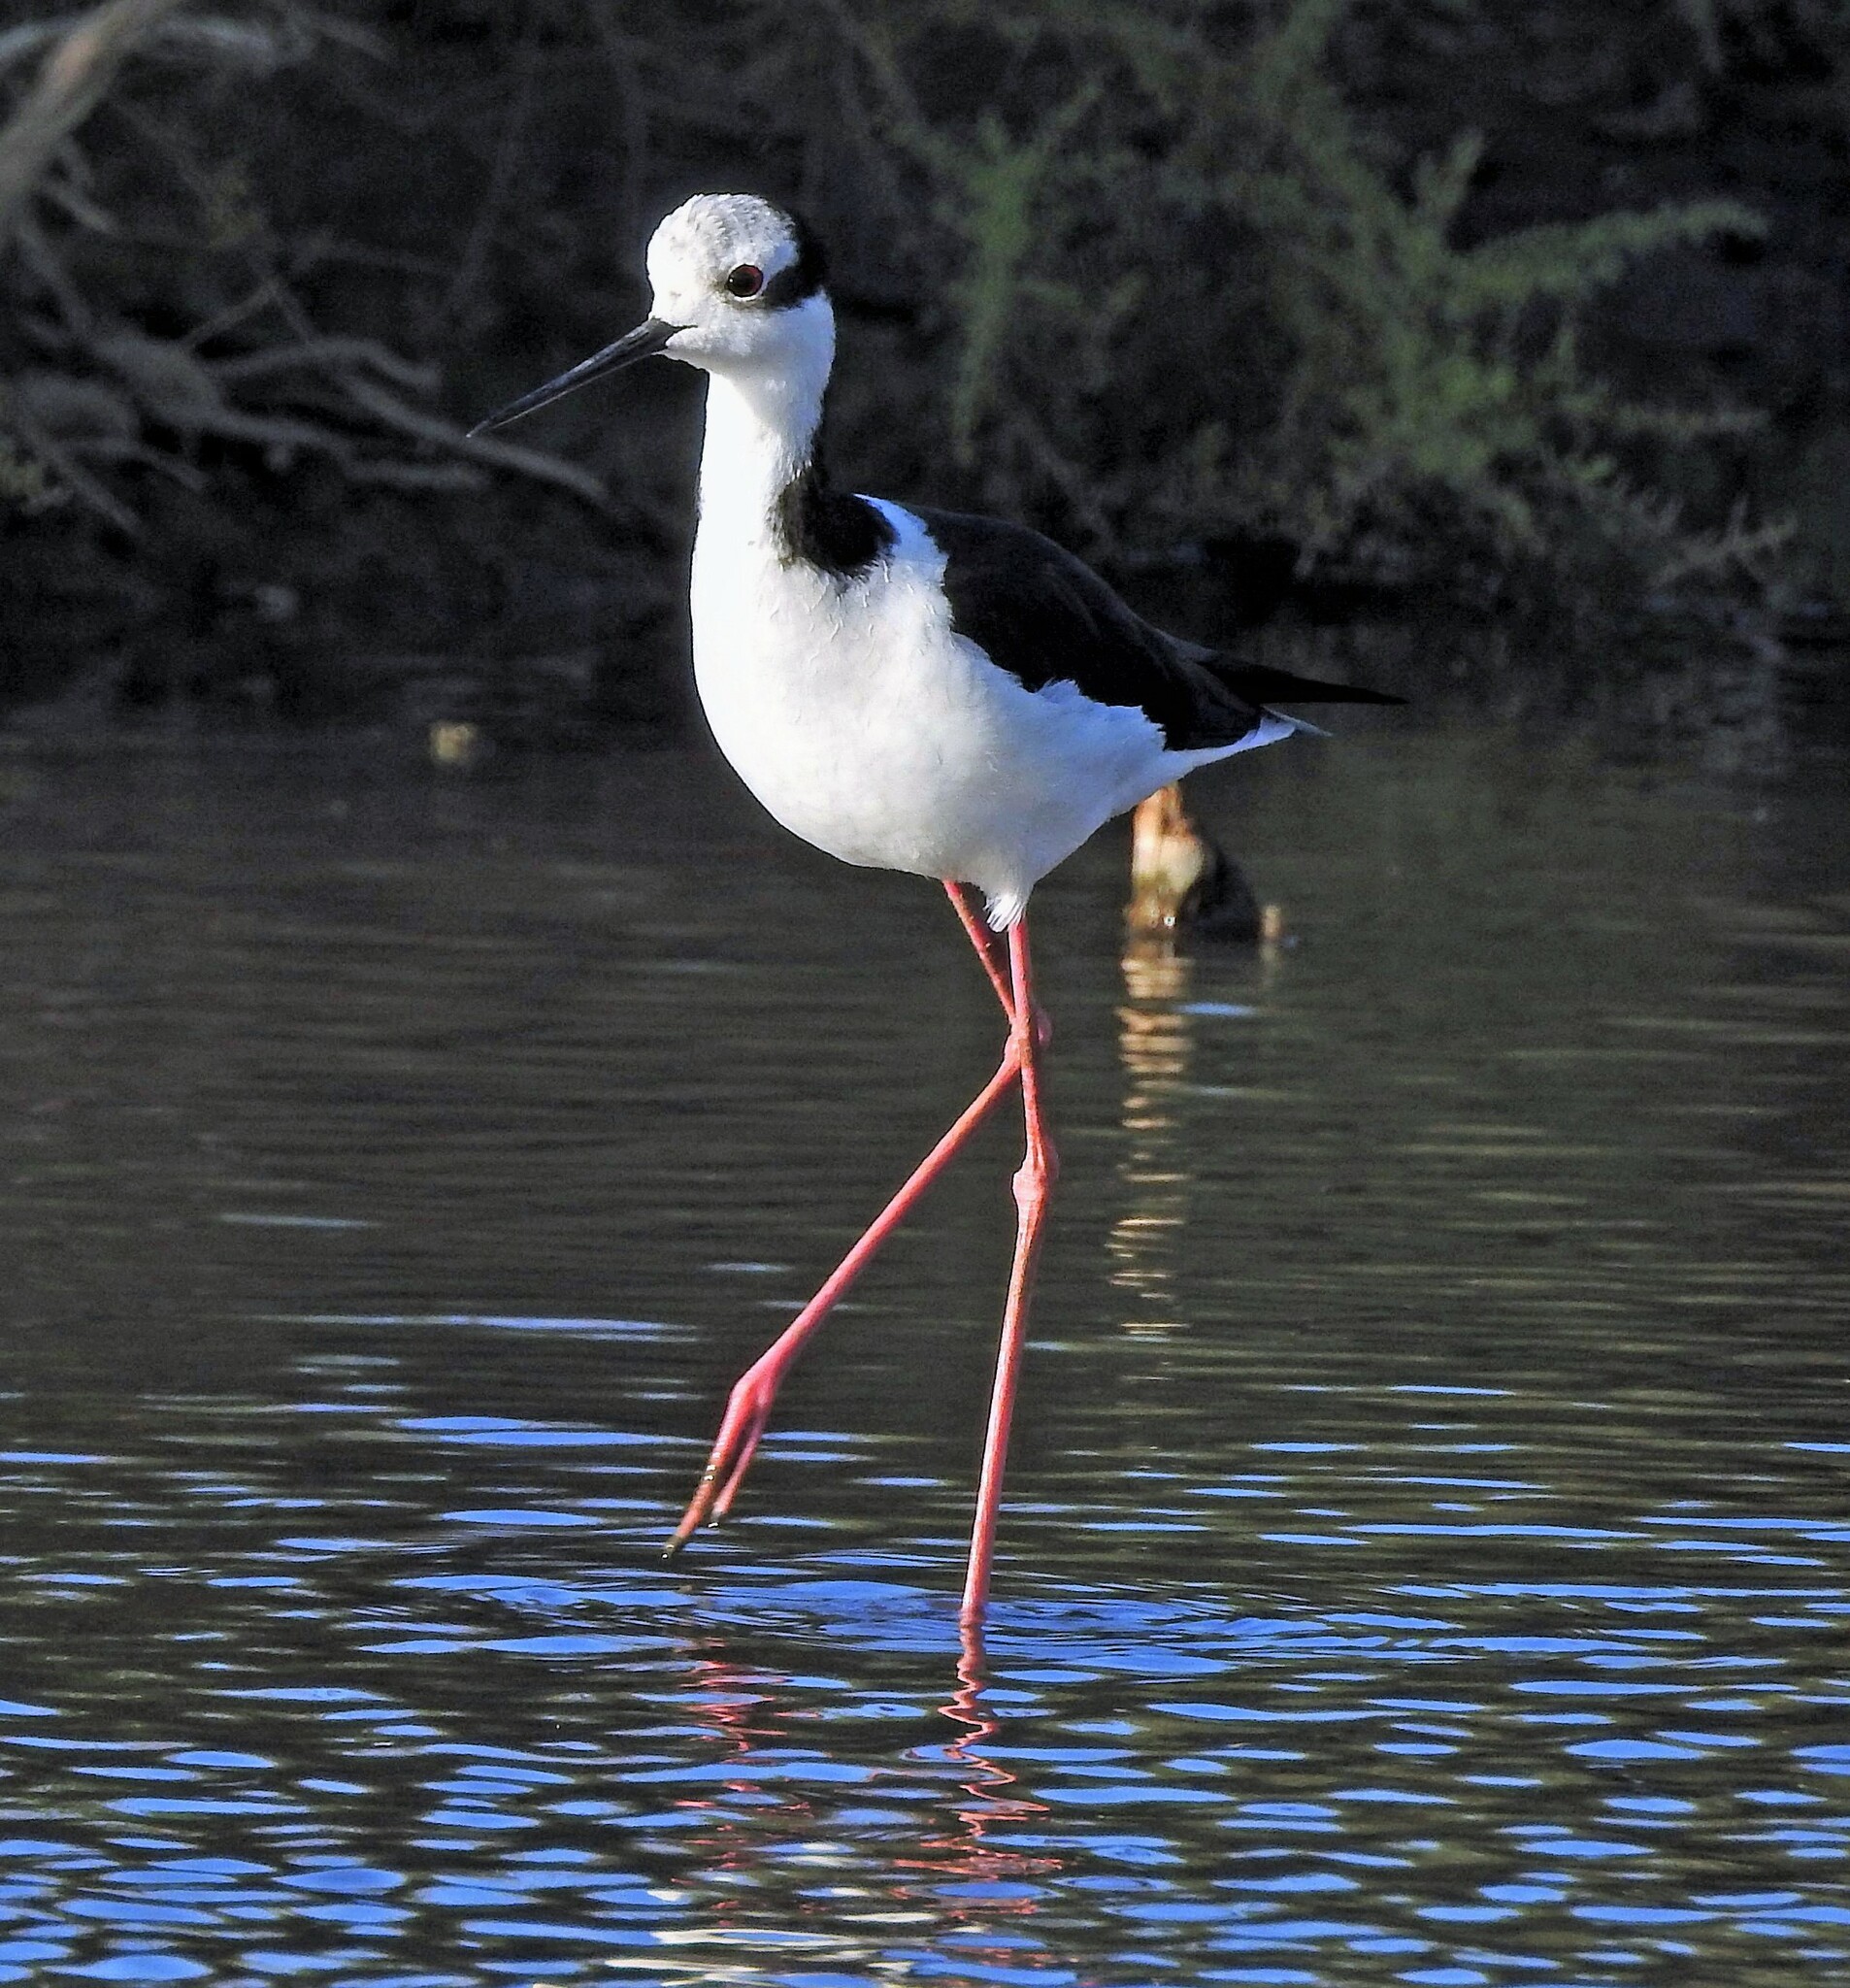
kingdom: Animalia
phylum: Chordata
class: Aves
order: Charadriiformes
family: Recurvirostridae
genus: Himantopus
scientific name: Himantopus mexicanus
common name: Black-necked stilt
